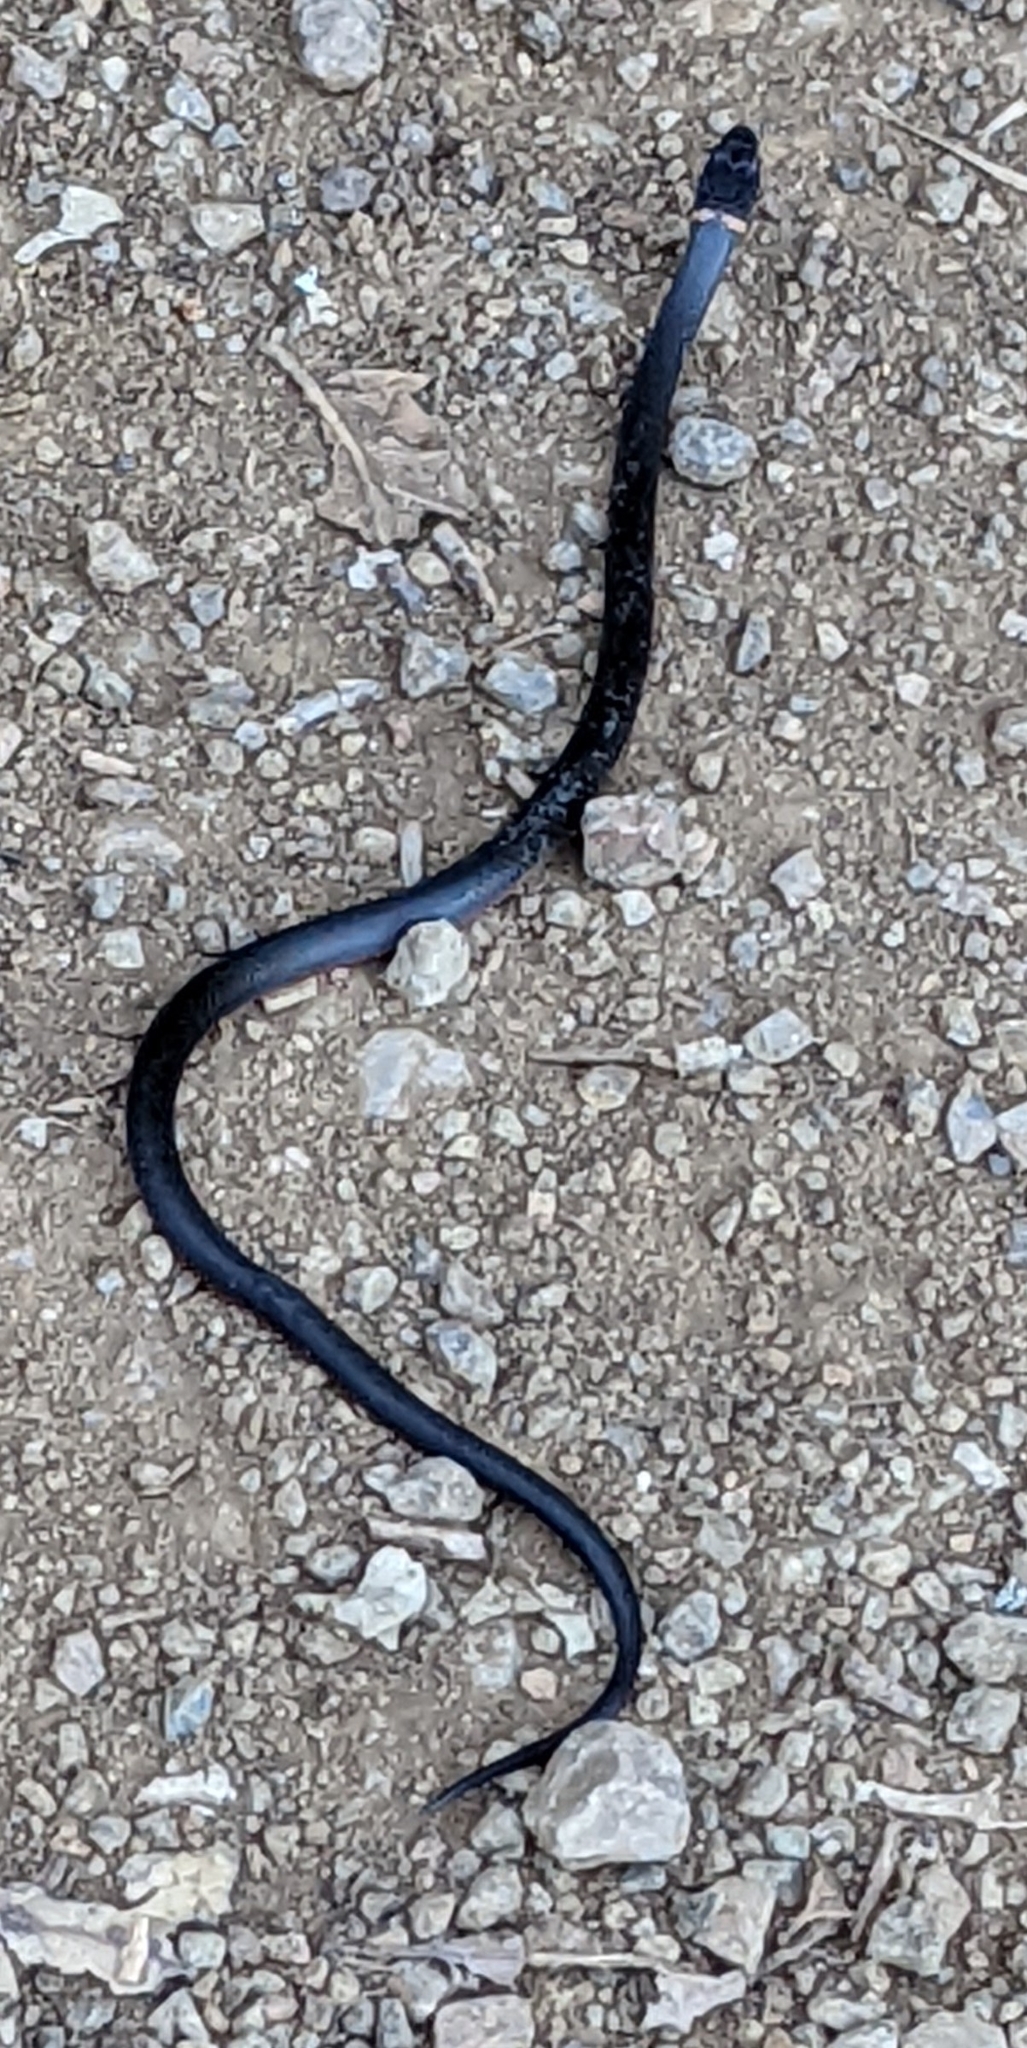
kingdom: Animalia
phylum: Chordata
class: Squamata
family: Colubridae
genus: Diadophis
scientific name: Diadophis punctatus
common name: Ringneck snake
